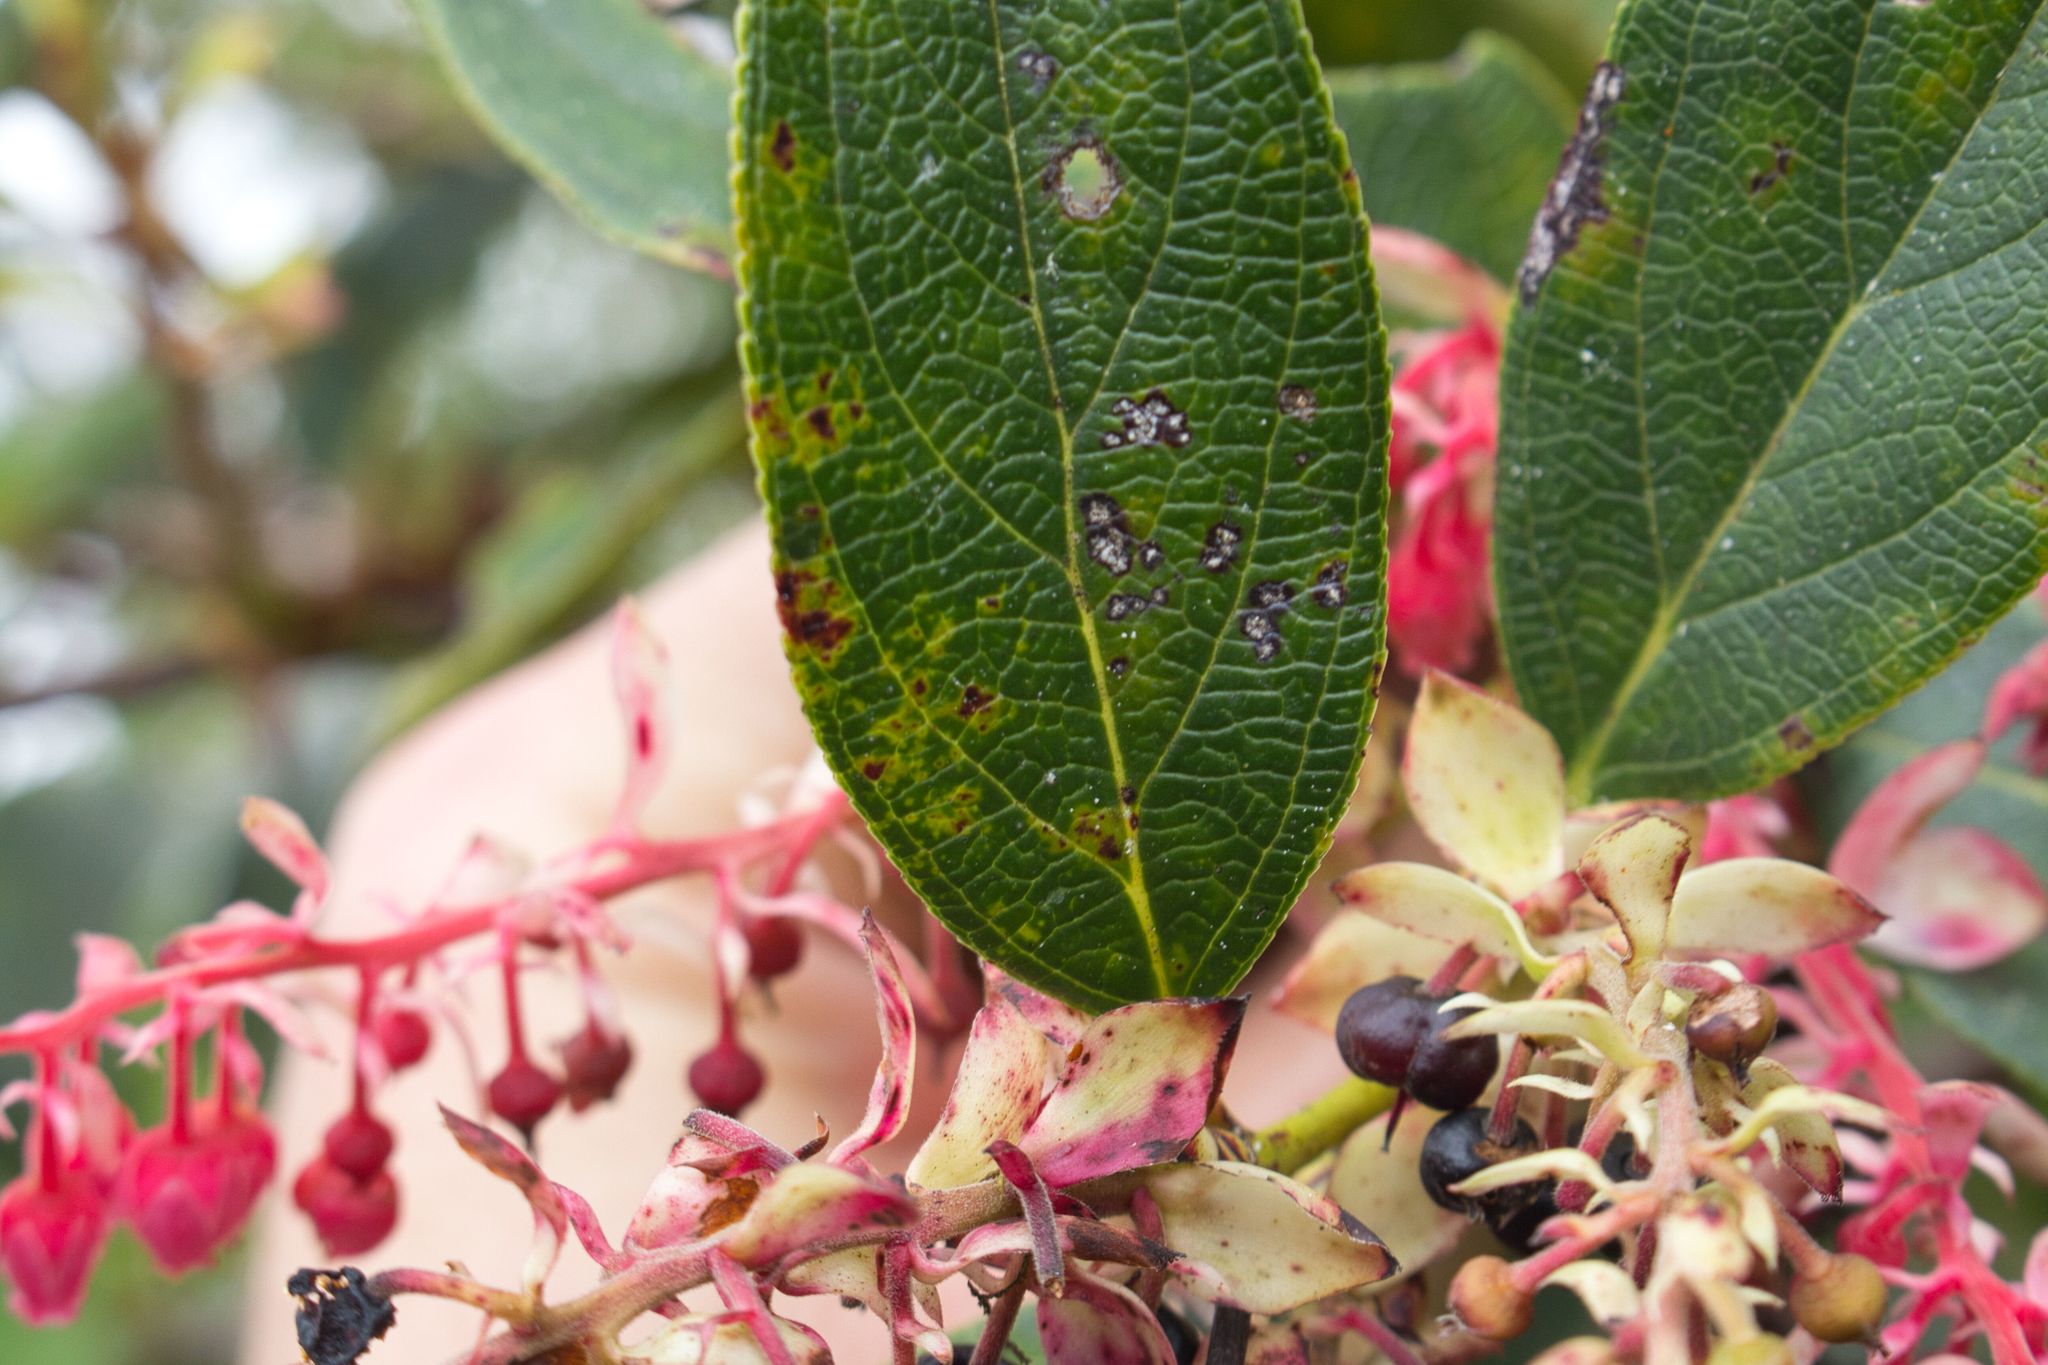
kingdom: Plantae
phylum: Tracheophyta
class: Magnoliopsida
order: Ericales
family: Ericaceae
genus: Gaultheria
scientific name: Gaultheria erecta
